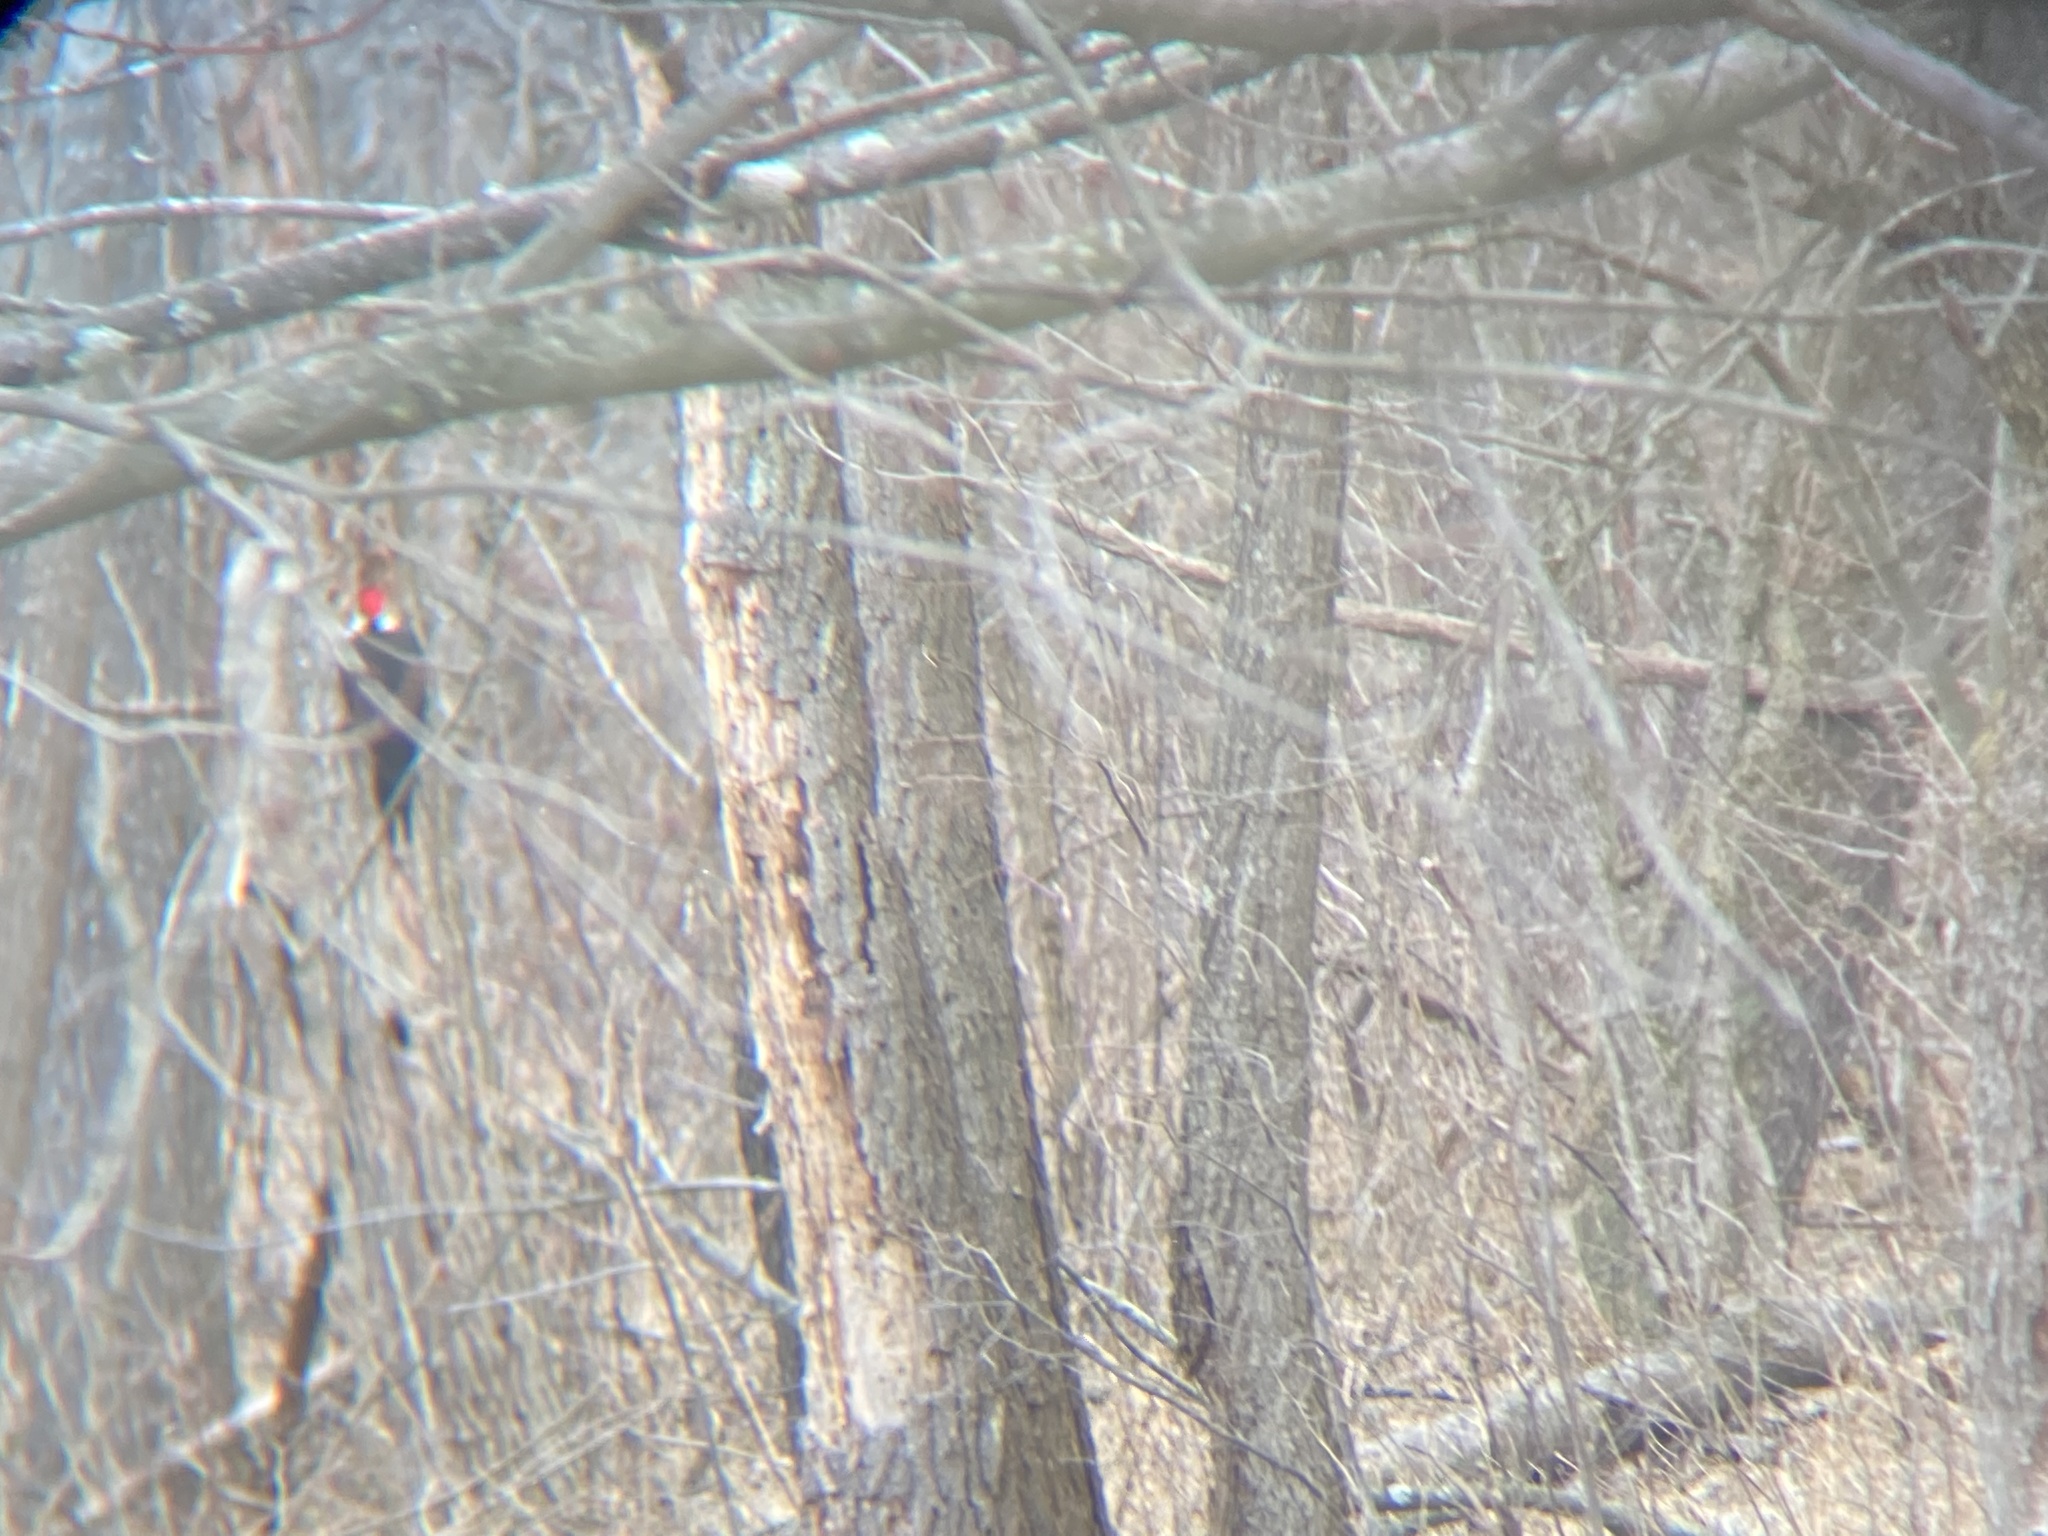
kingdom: Animalia
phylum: Chordata
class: Aves
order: Piciformes
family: Picidae
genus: Dryocopus
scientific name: Dryocopus pileatus
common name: Pileated woodpecker
